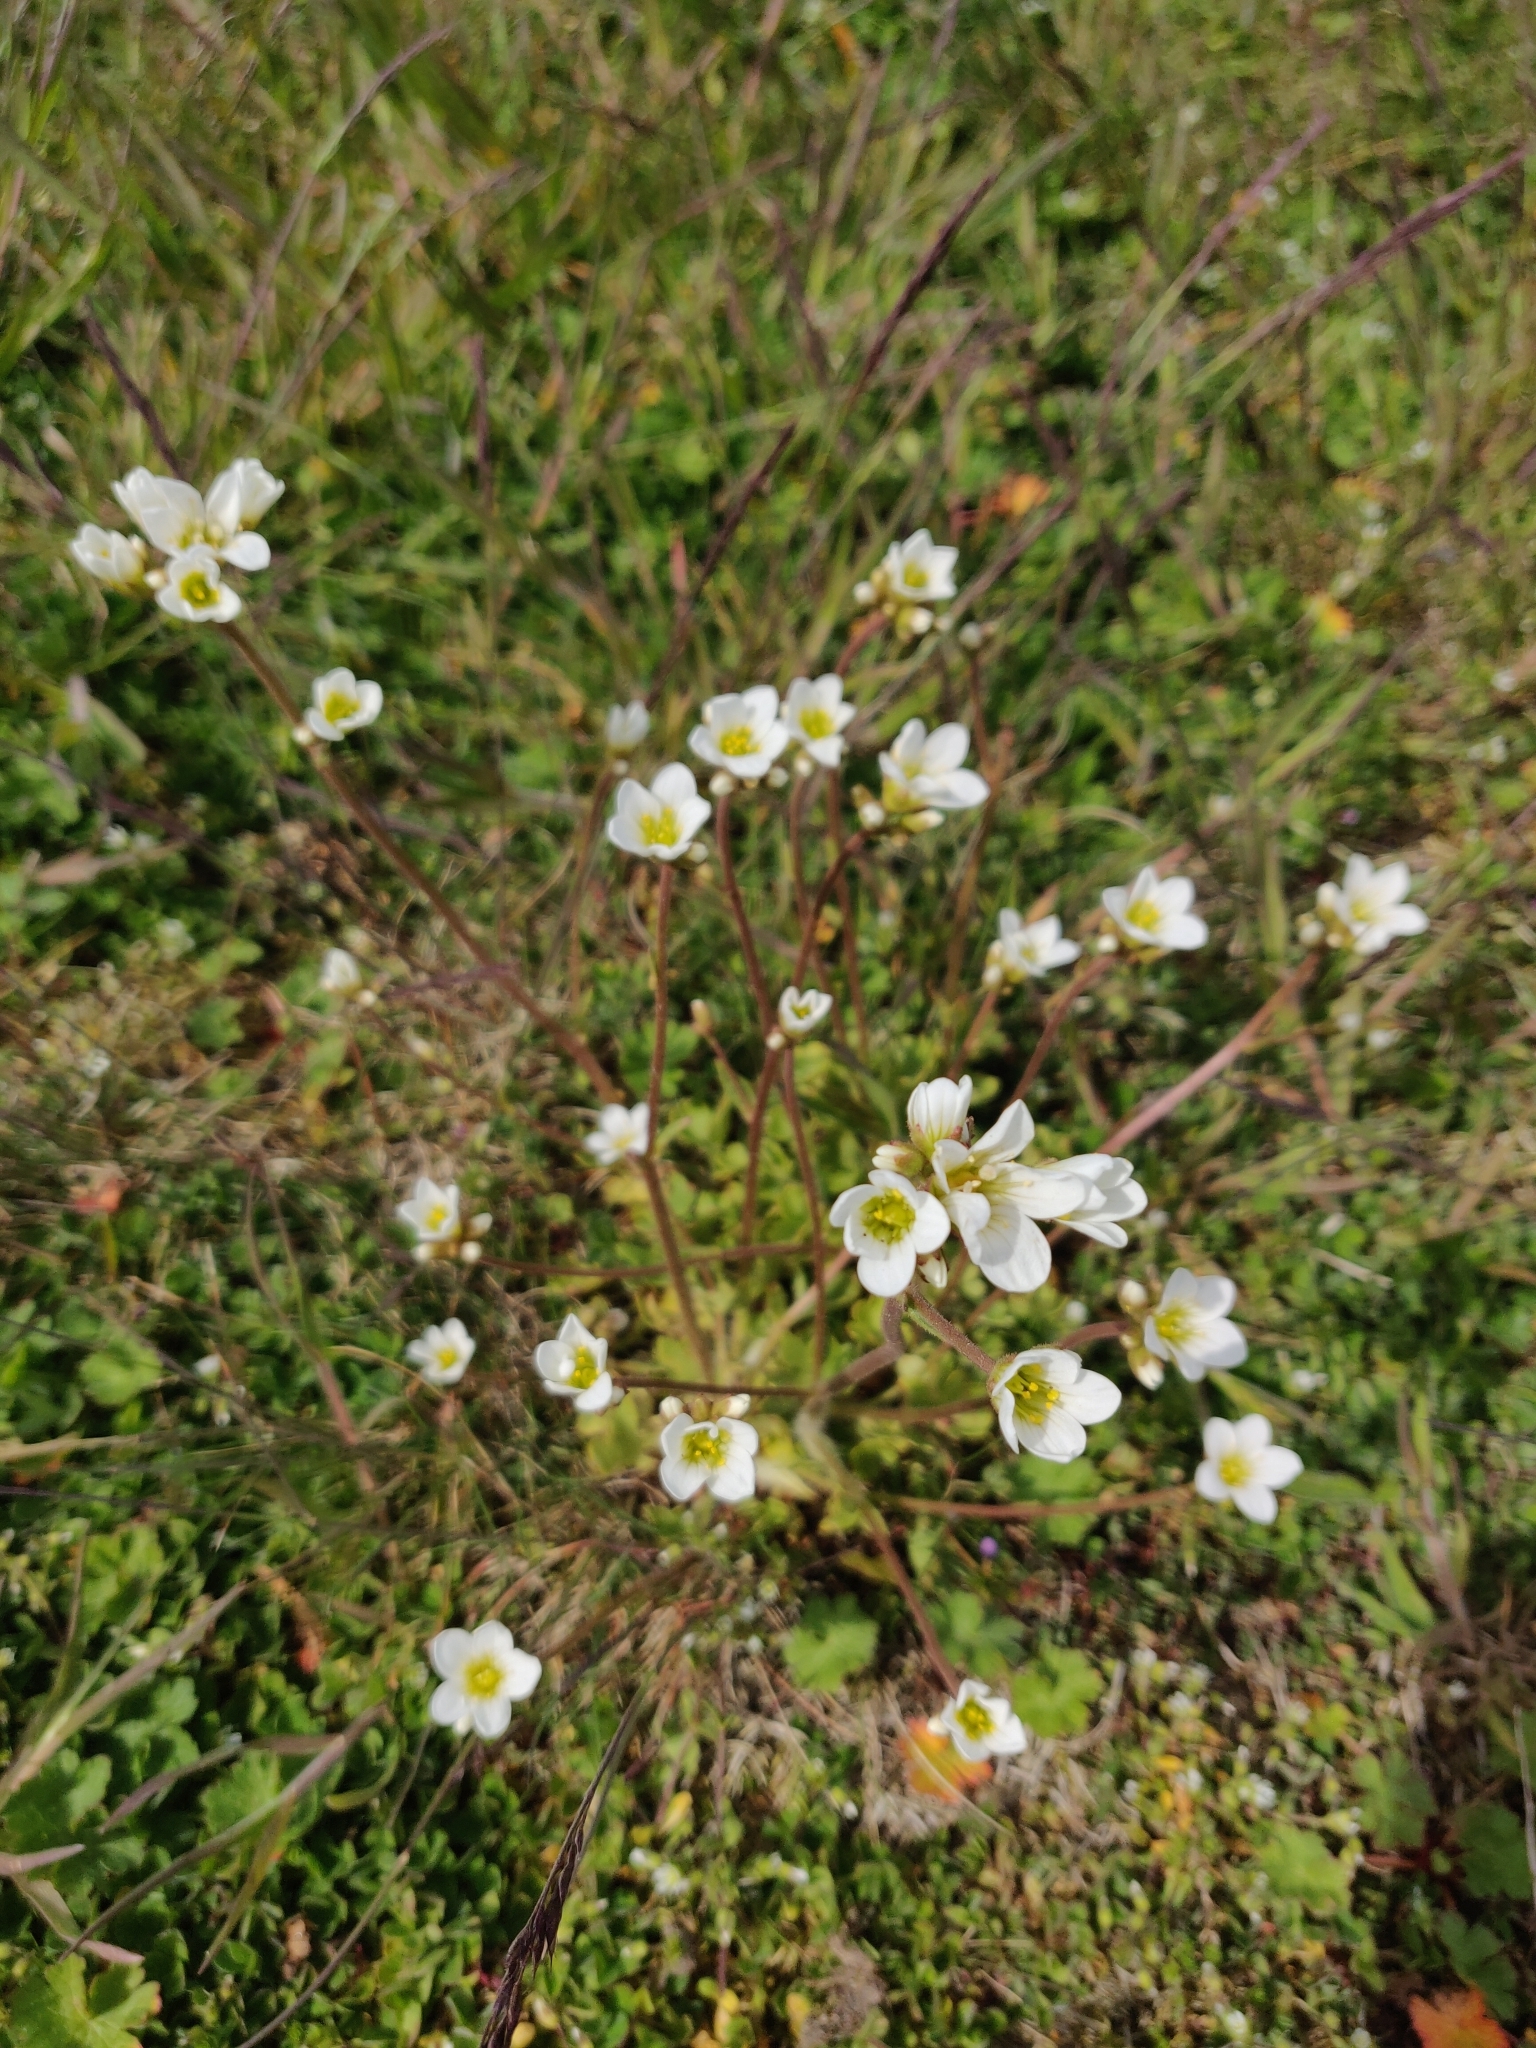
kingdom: Plantae
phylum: Tracheophyta
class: Magnoliopsida
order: Saxifragales
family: Saxifragaceae
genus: Saxifraga
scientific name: Saxifraga granulata
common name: Meadow saxifrage
